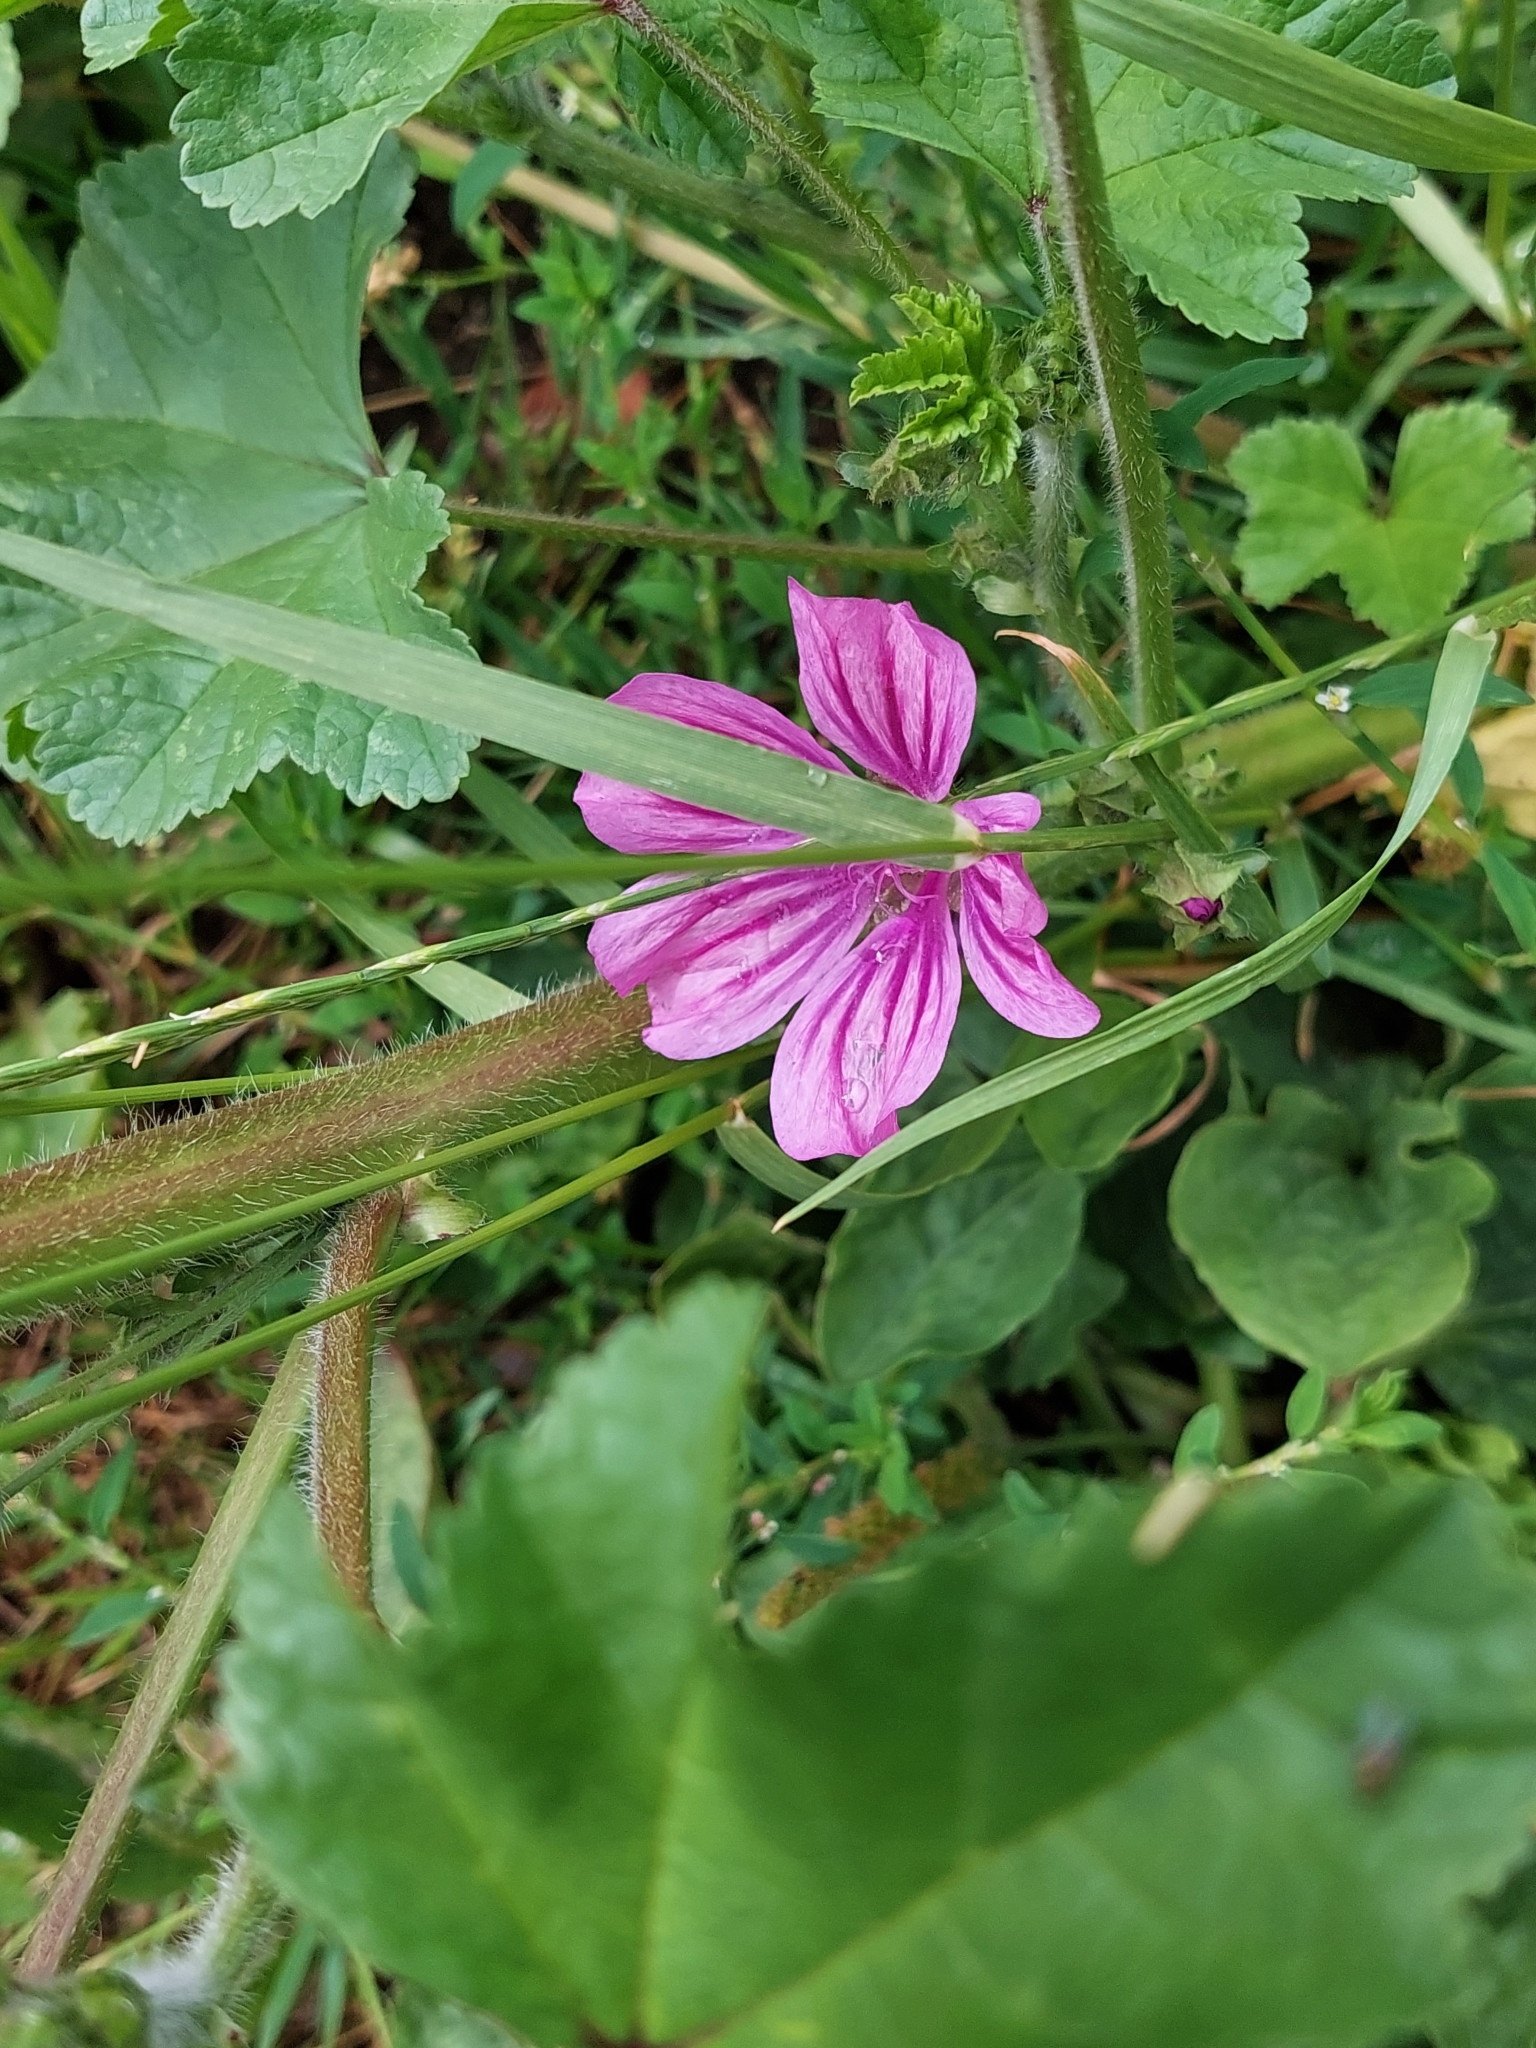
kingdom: Plantae
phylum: Tracheophyta
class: Magnoliopsida
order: Malvales
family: Malvaceae
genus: Malva
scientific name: Malva sylvestris
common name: Common mallow
